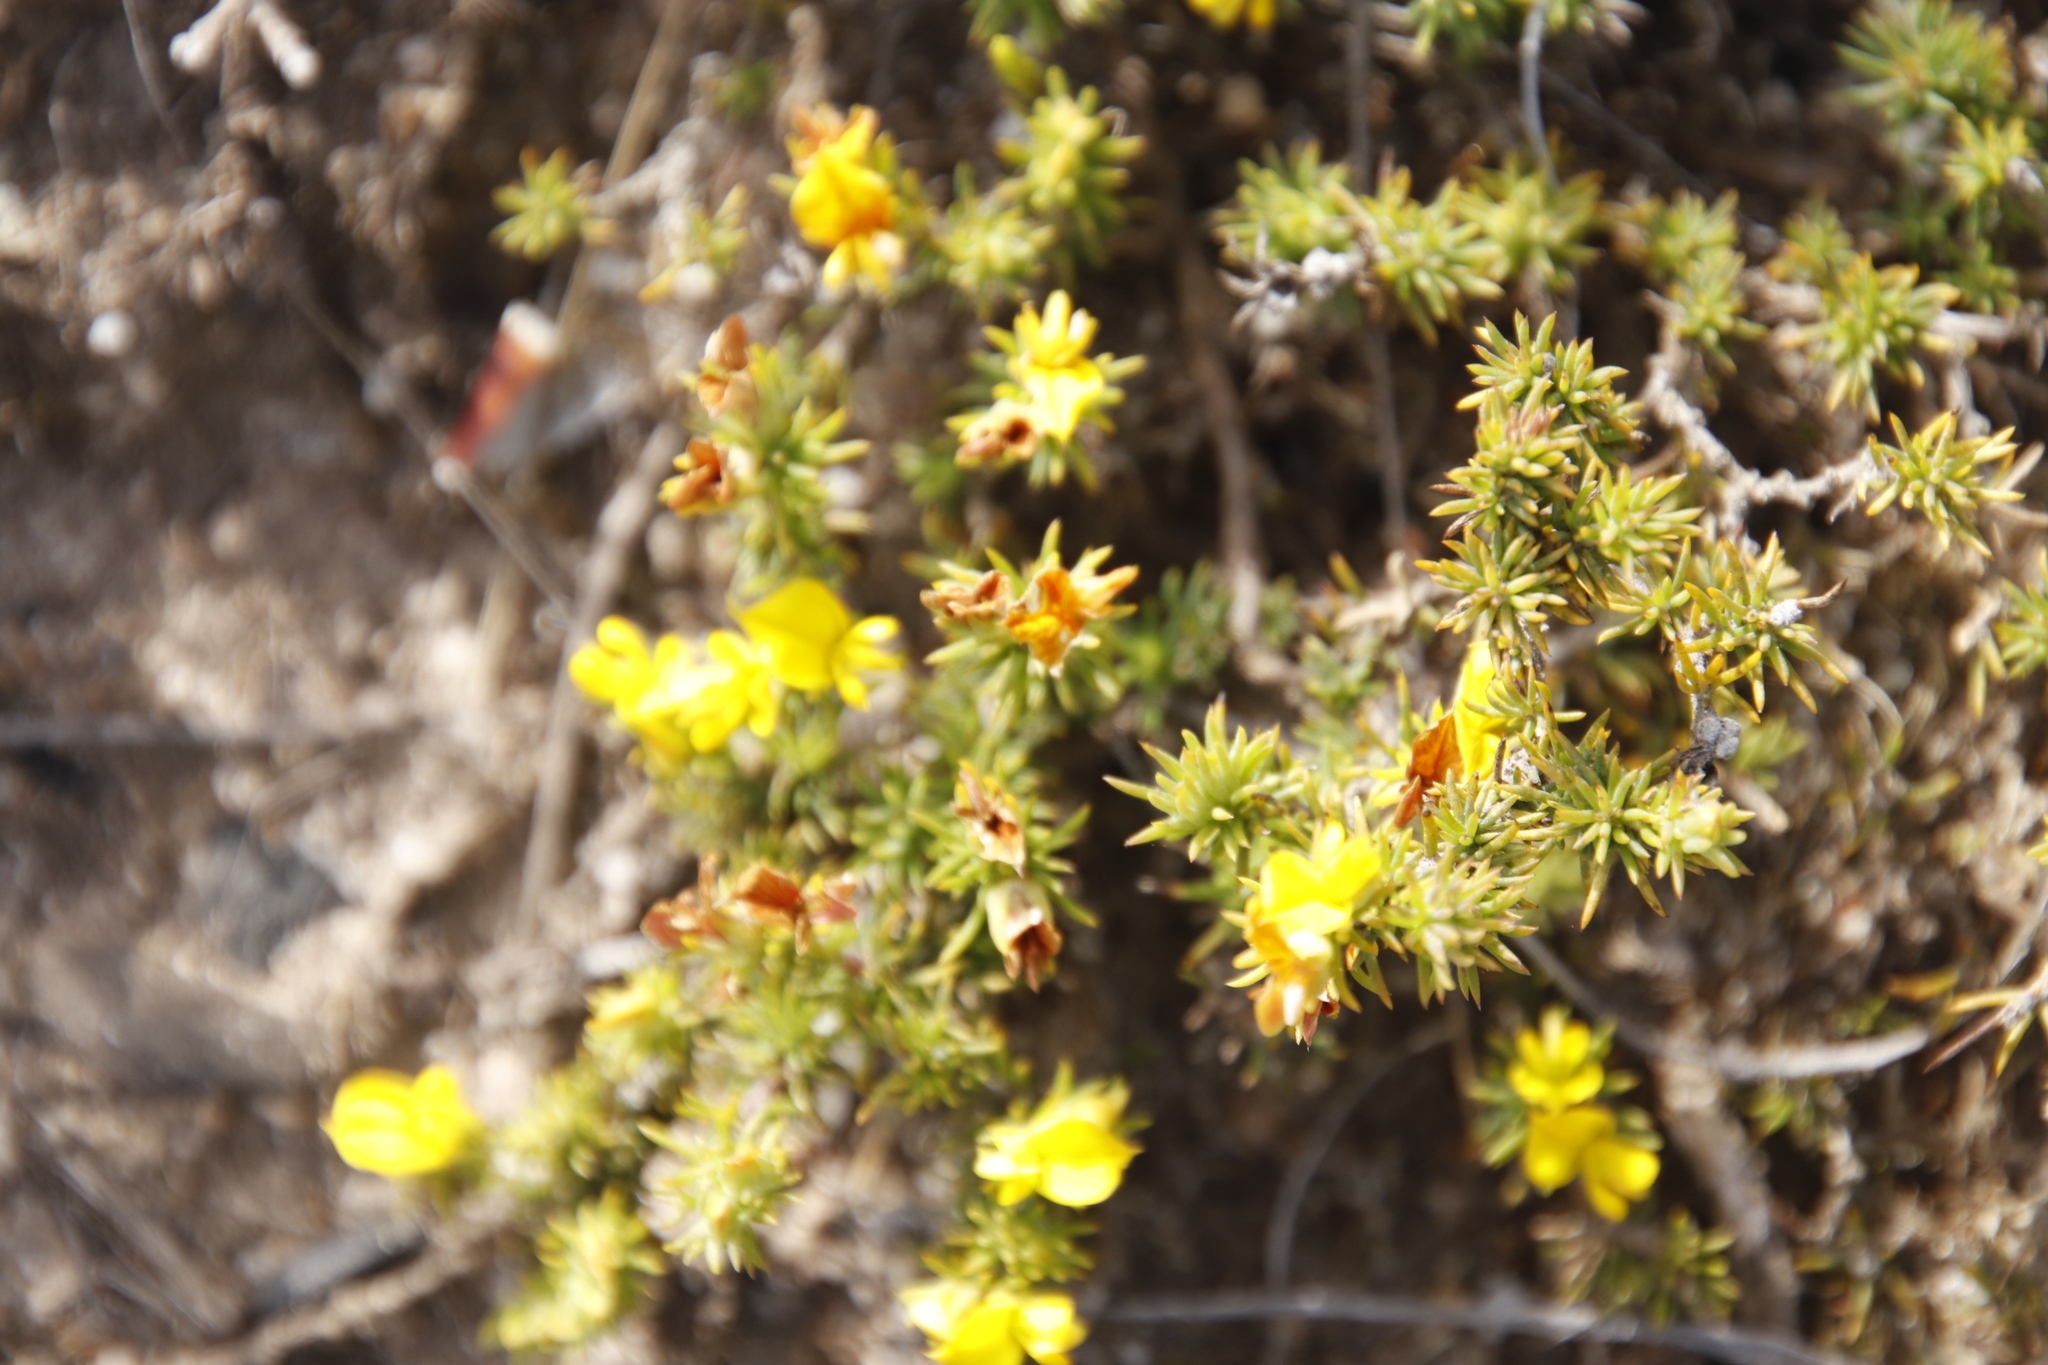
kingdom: Plantae
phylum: Tracheophyta
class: Magnoliopsida
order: Fabales
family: Fabaceae
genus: Aspalathus
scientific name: Aspalathus juniperina
